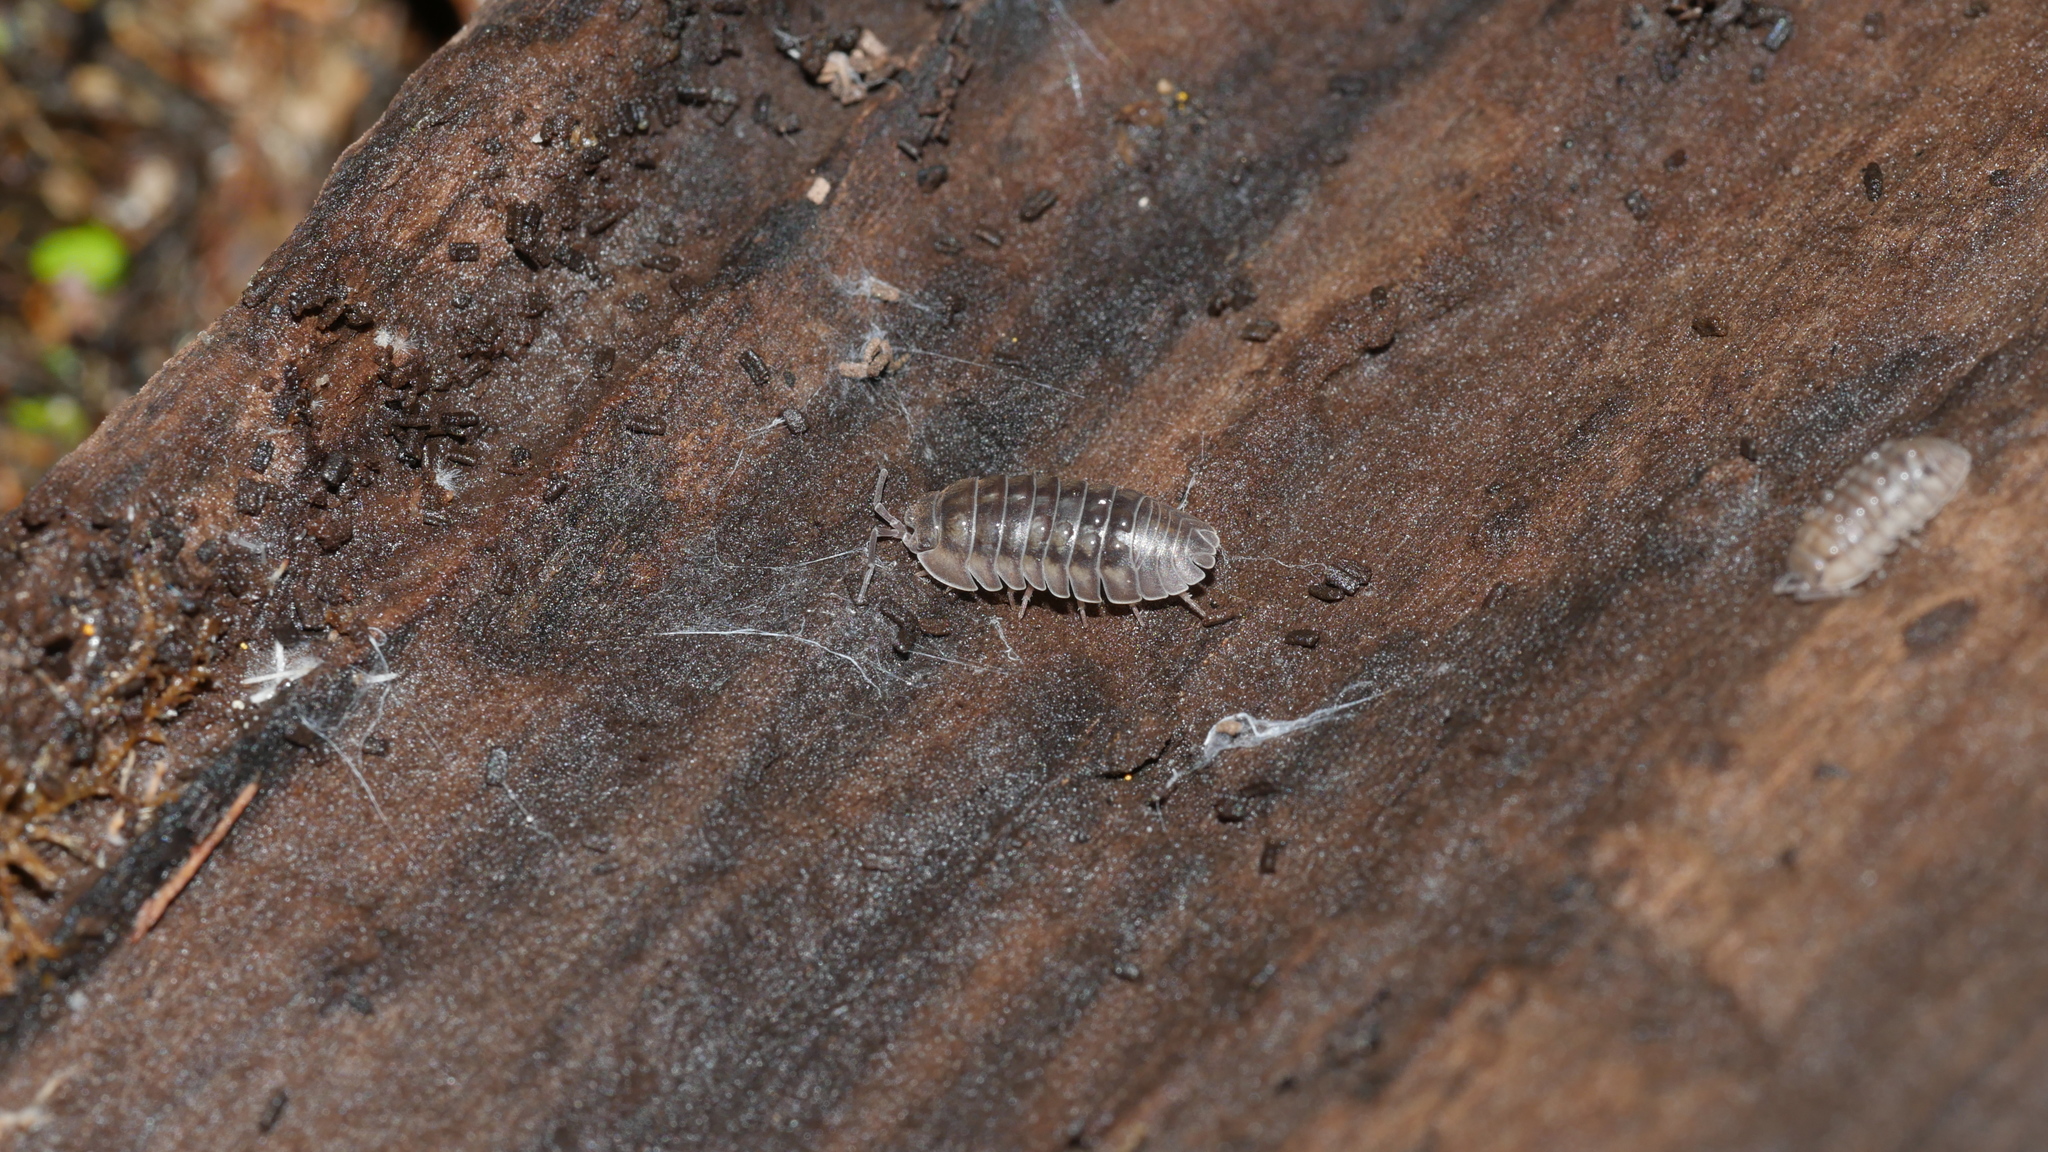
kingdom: Animalia
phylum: Arthropoda
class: Malacostraca
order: Isopoda
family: Armadillidiidae
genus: Armadillidium
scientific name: Armadillidium nasatum
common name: Isopod
